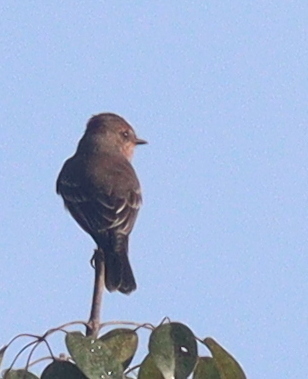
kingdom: Animalia
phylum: Chordata
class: Aves
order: Passeriformes
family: Tyrannidae
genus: Pyrocephalus
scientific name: Pyrocephalus rubinus
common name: Vermilion flycatcher
